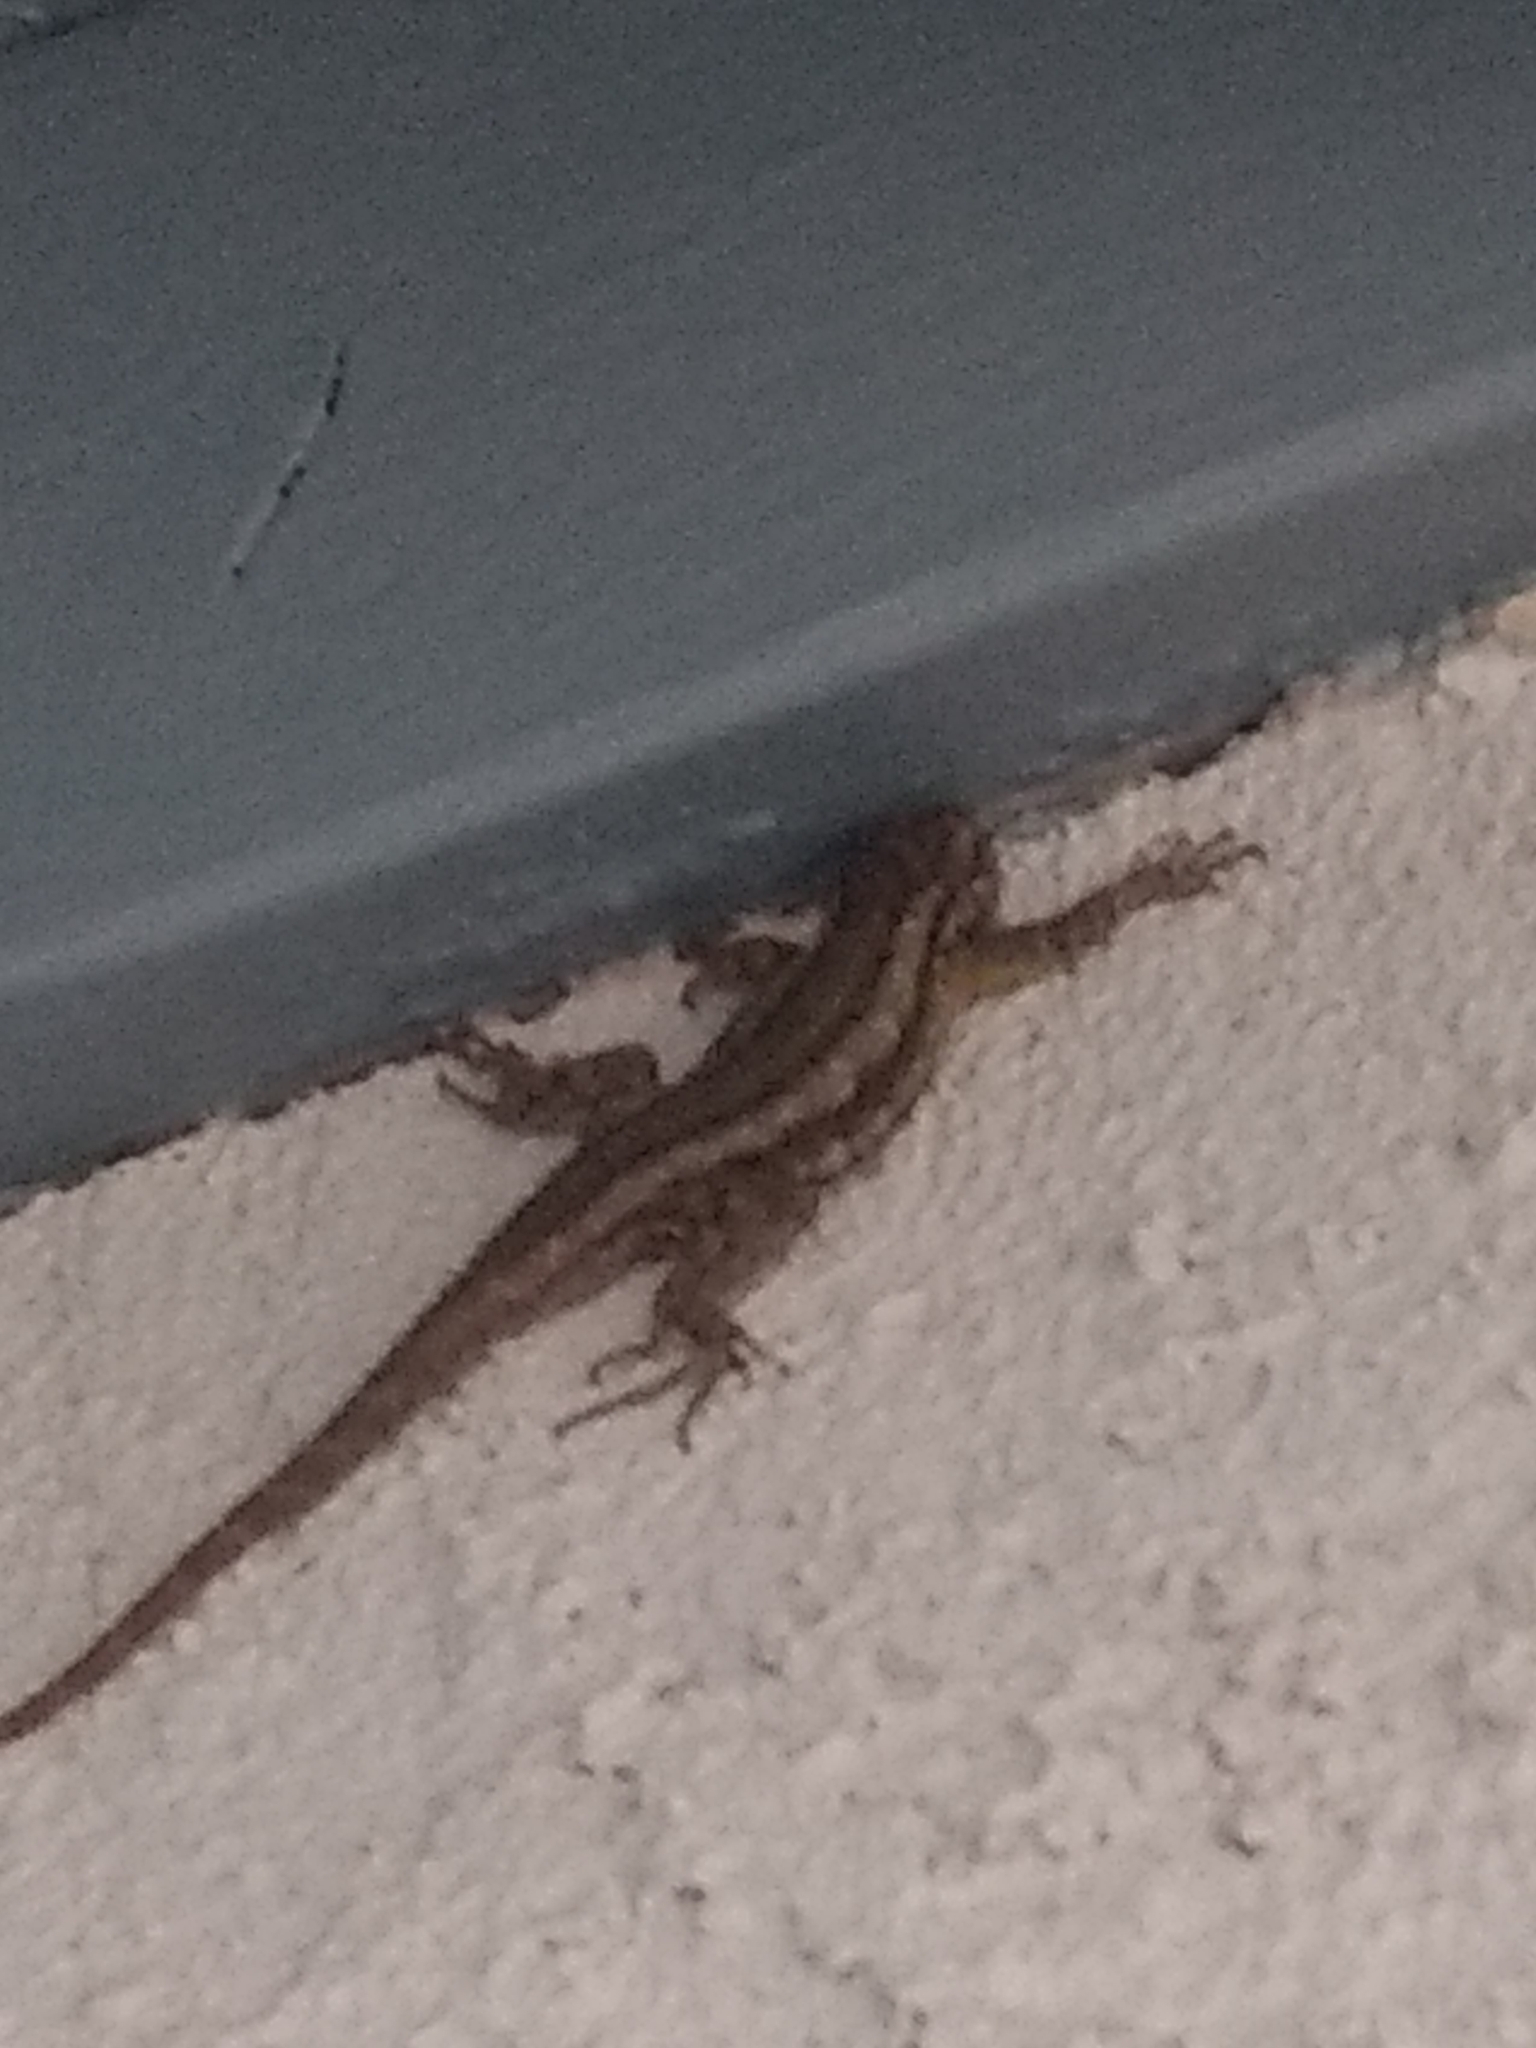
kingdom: Animalia
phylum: Chordata
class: Squamata
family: Phrynosomatidae
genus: Sceloporus
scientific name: Sceloporus occidentalis
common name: Western fence lizard
